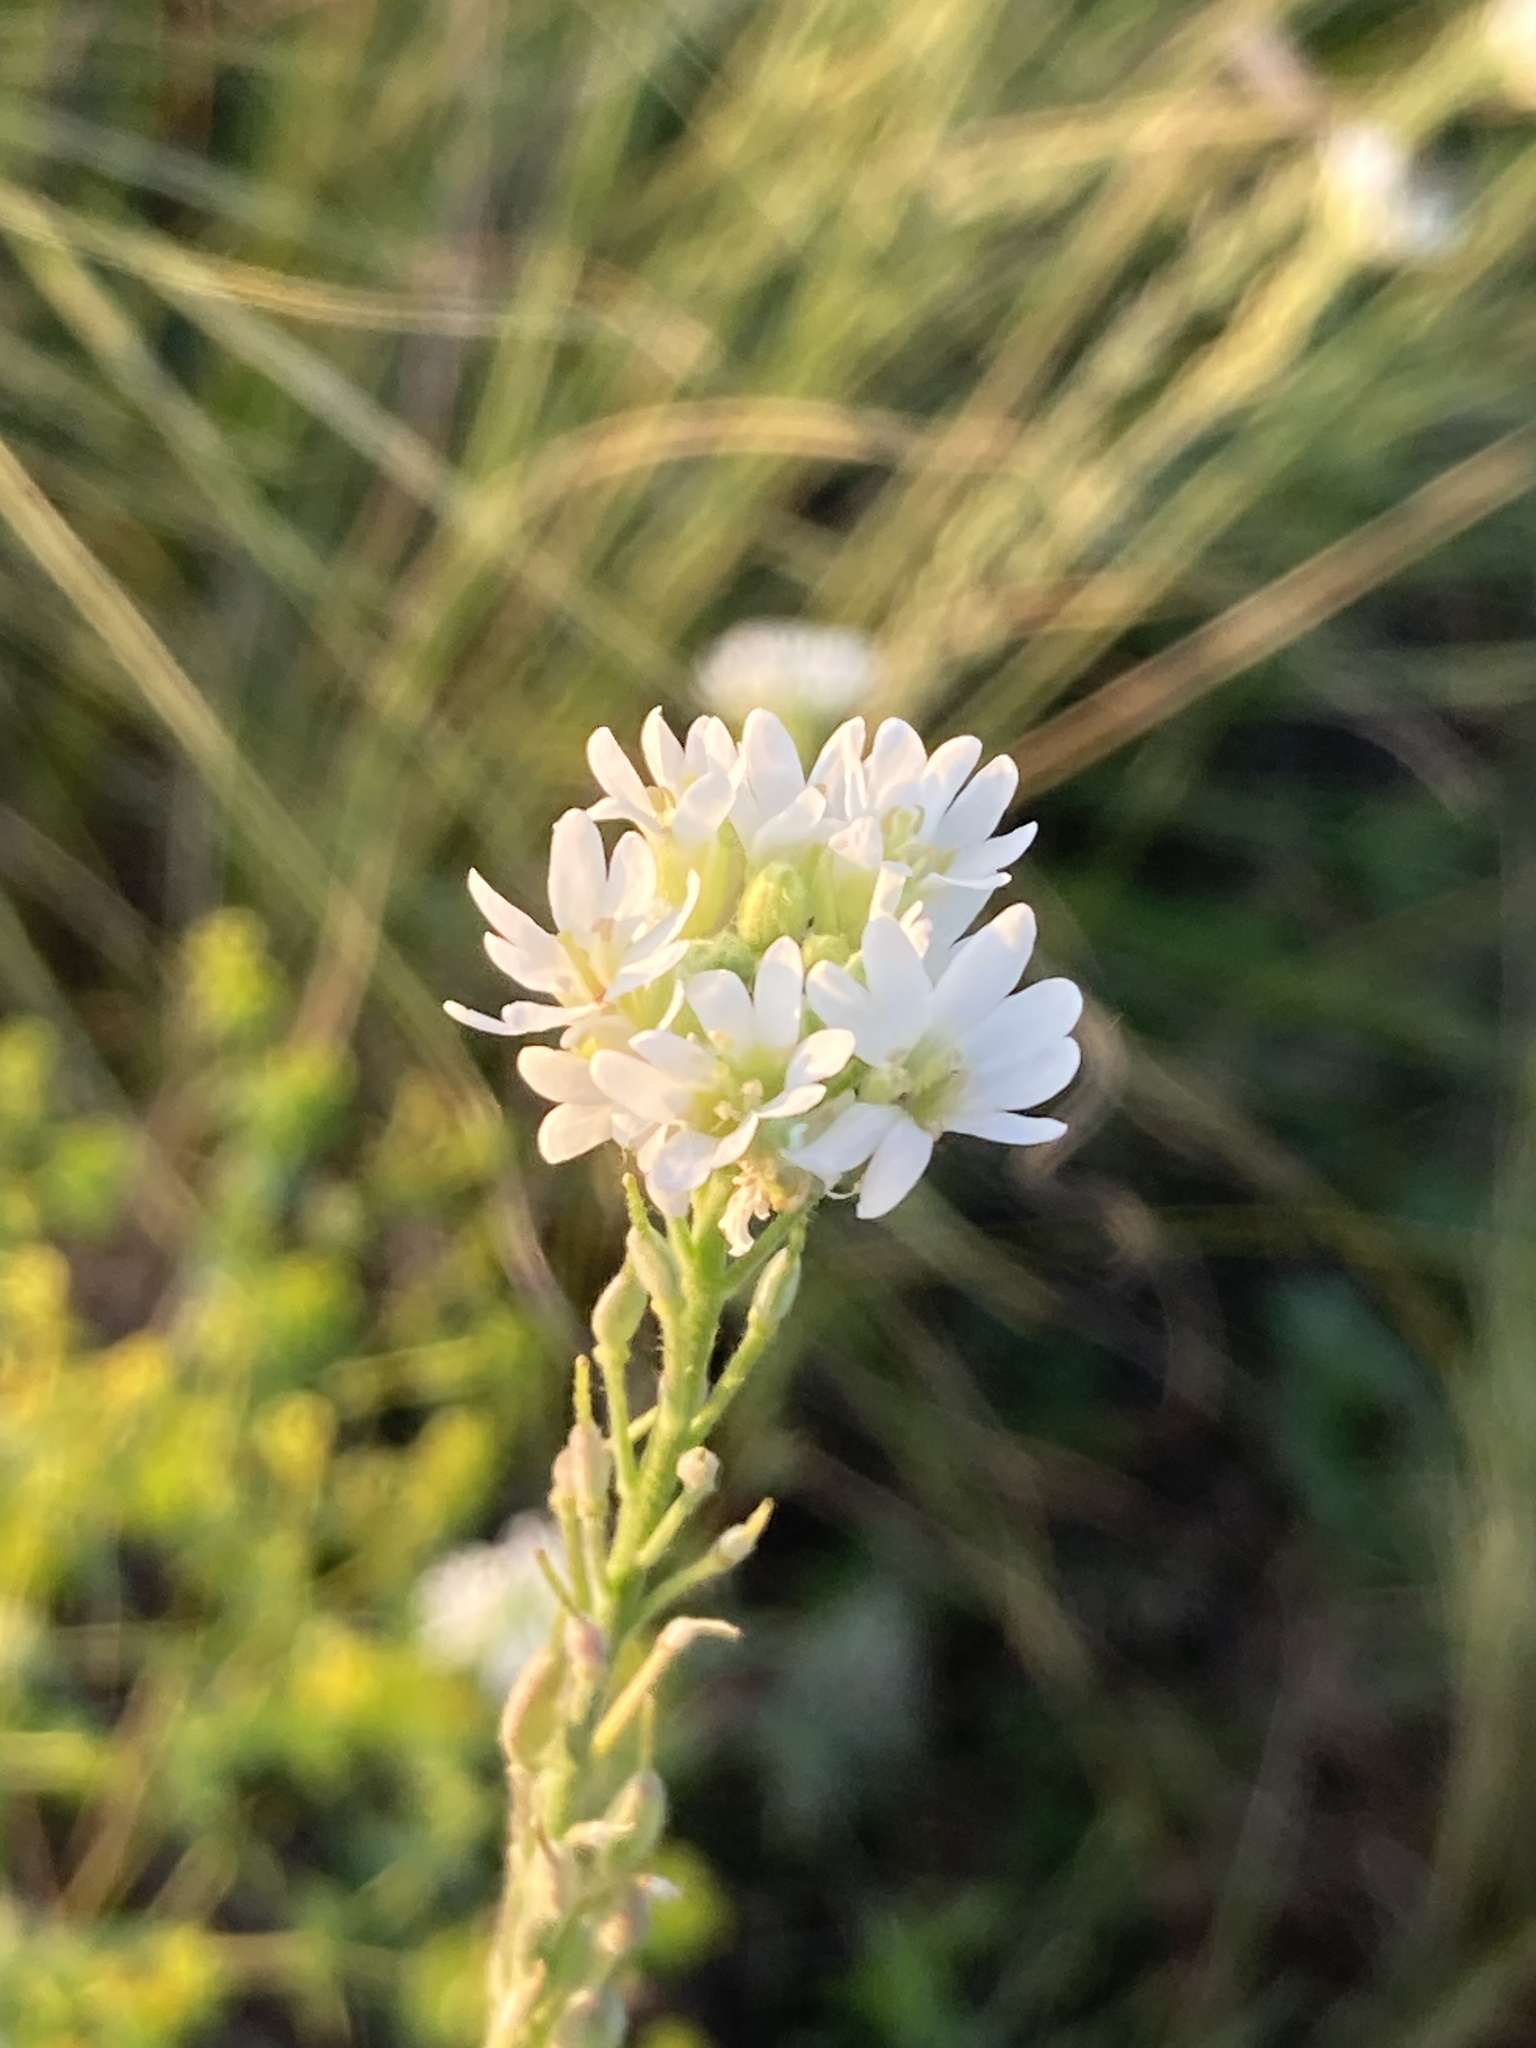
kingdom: Plantae
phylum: Tracheophyta
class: Magnoliopsida
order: Brassicales
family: Brassicaceae
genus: Berteroa
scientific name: Berteroa incana
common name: Hoary alison
